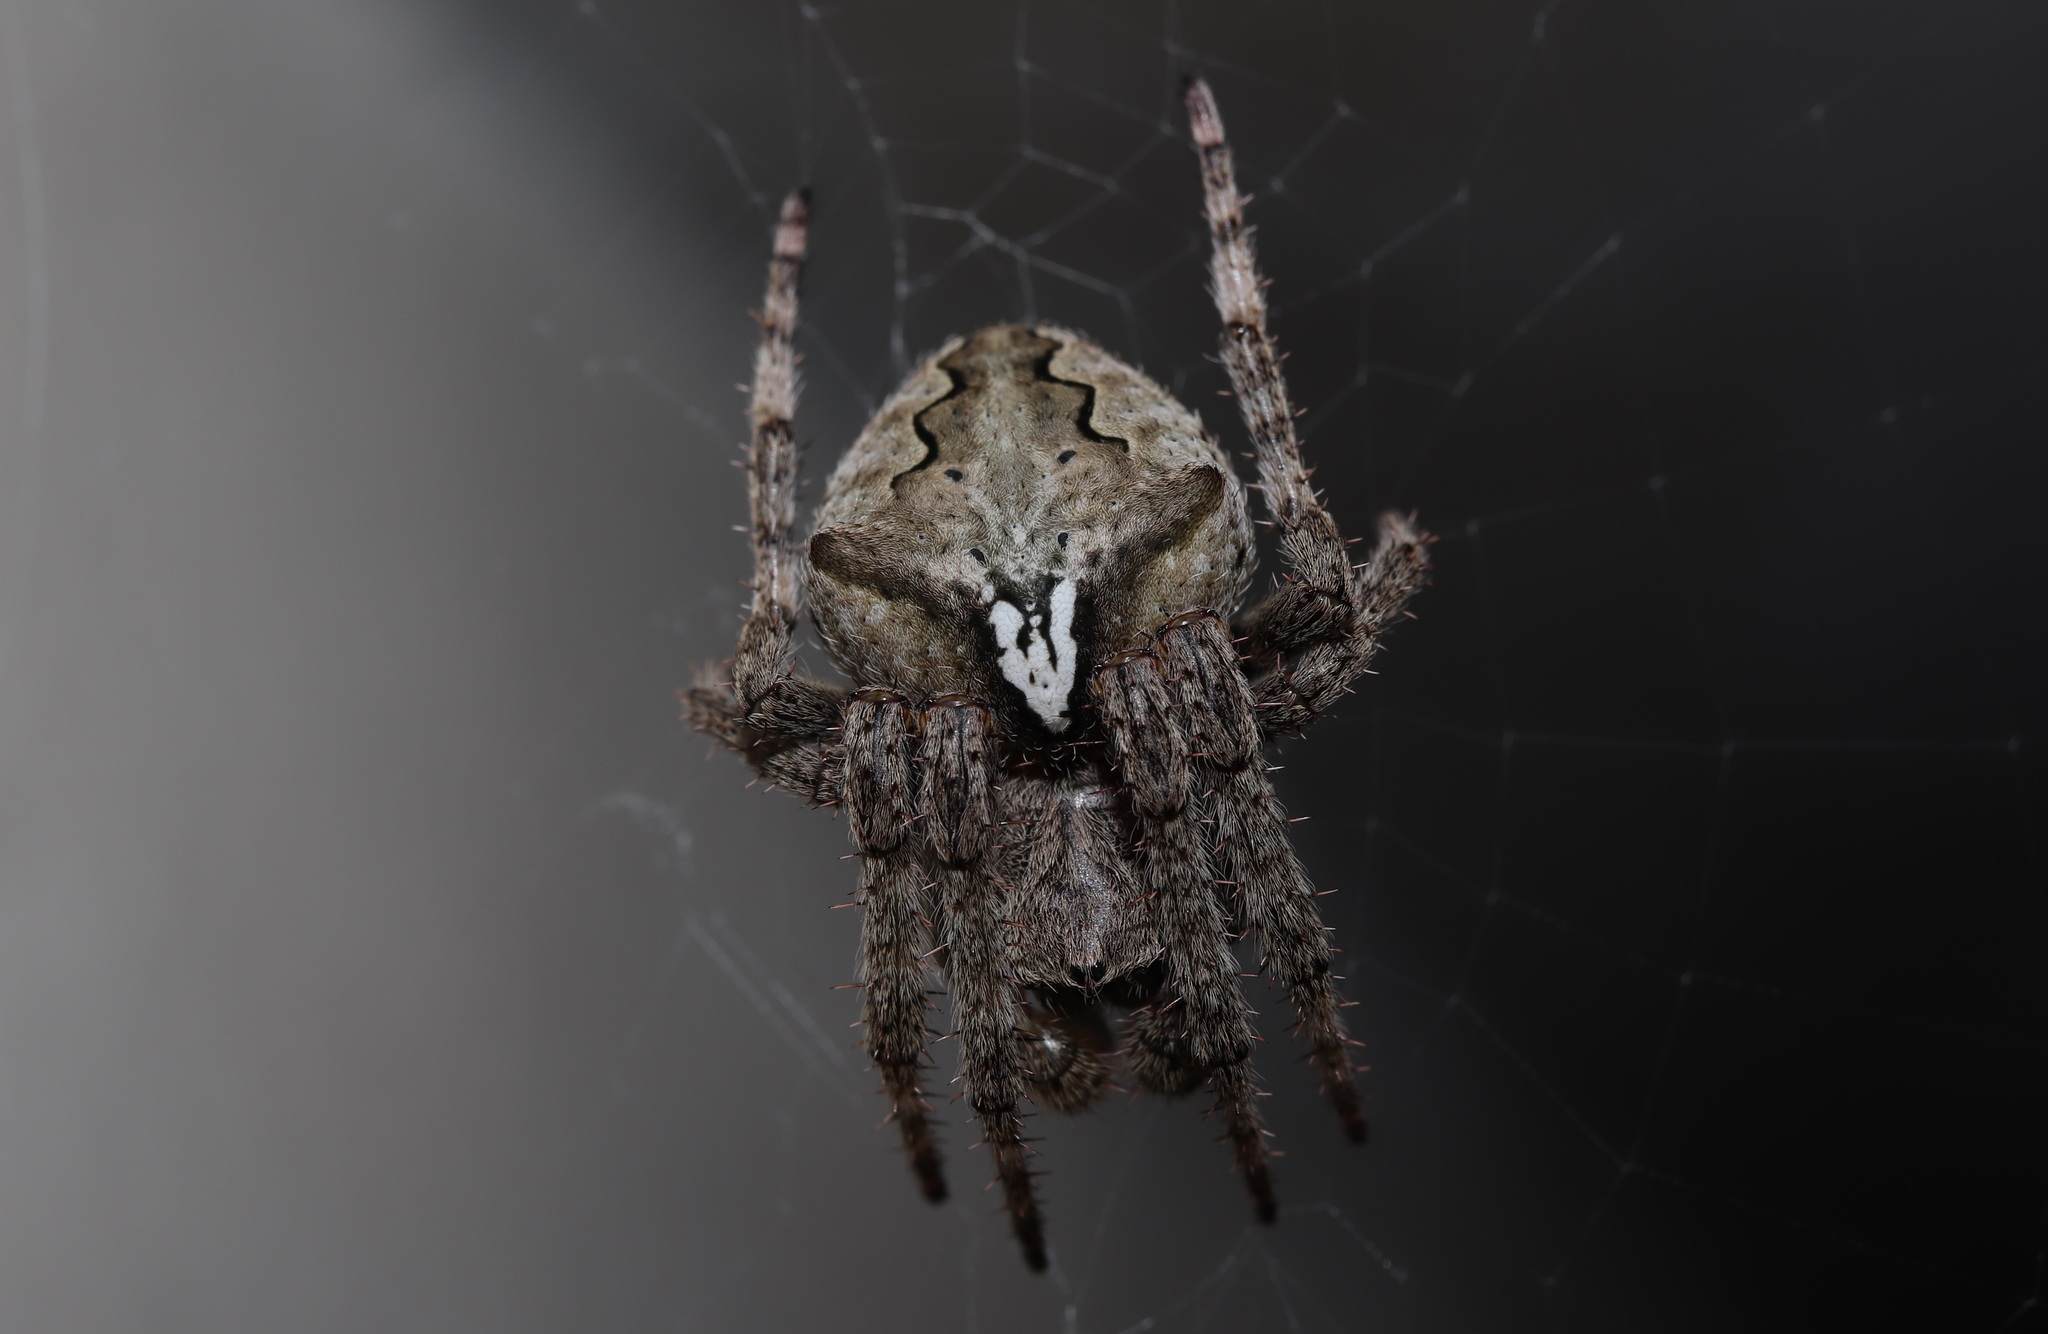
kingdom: Animalia
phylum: Arthropoda
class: Arachnida
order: Araneae
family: Araneidae
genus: Araneus
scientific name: Araneus ventricosus
